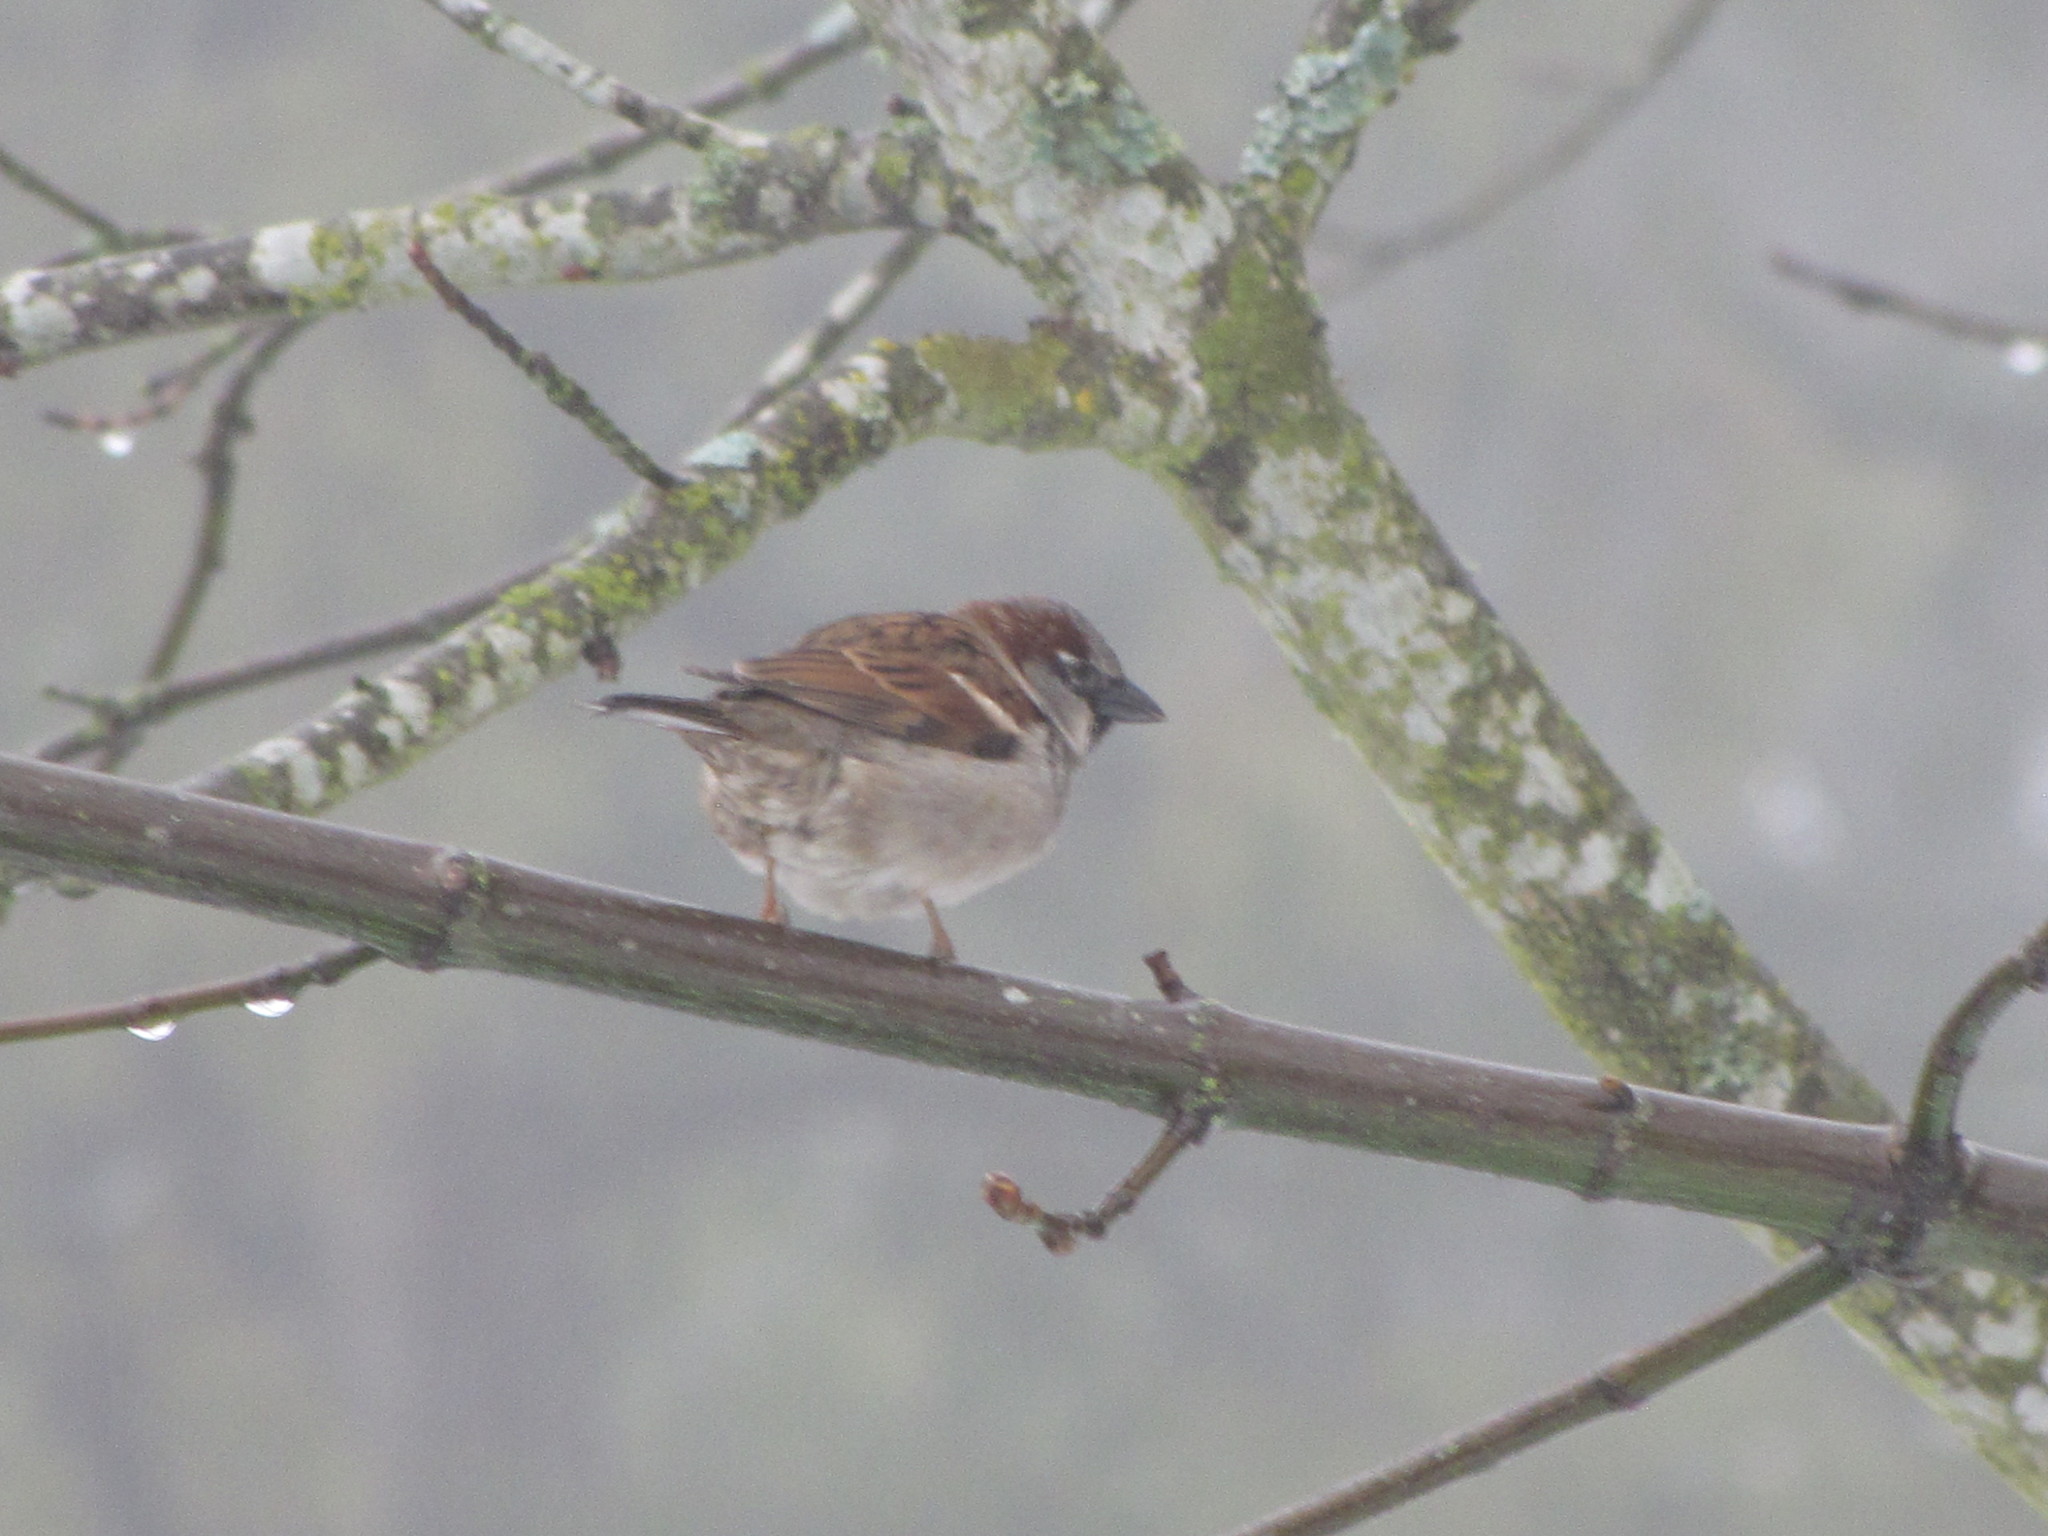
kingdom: Animalia
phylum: Chordata
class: Aves
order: Passeriformes
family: Passeridae
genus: Passer
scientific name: Passer domesticus
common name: House sparrow
